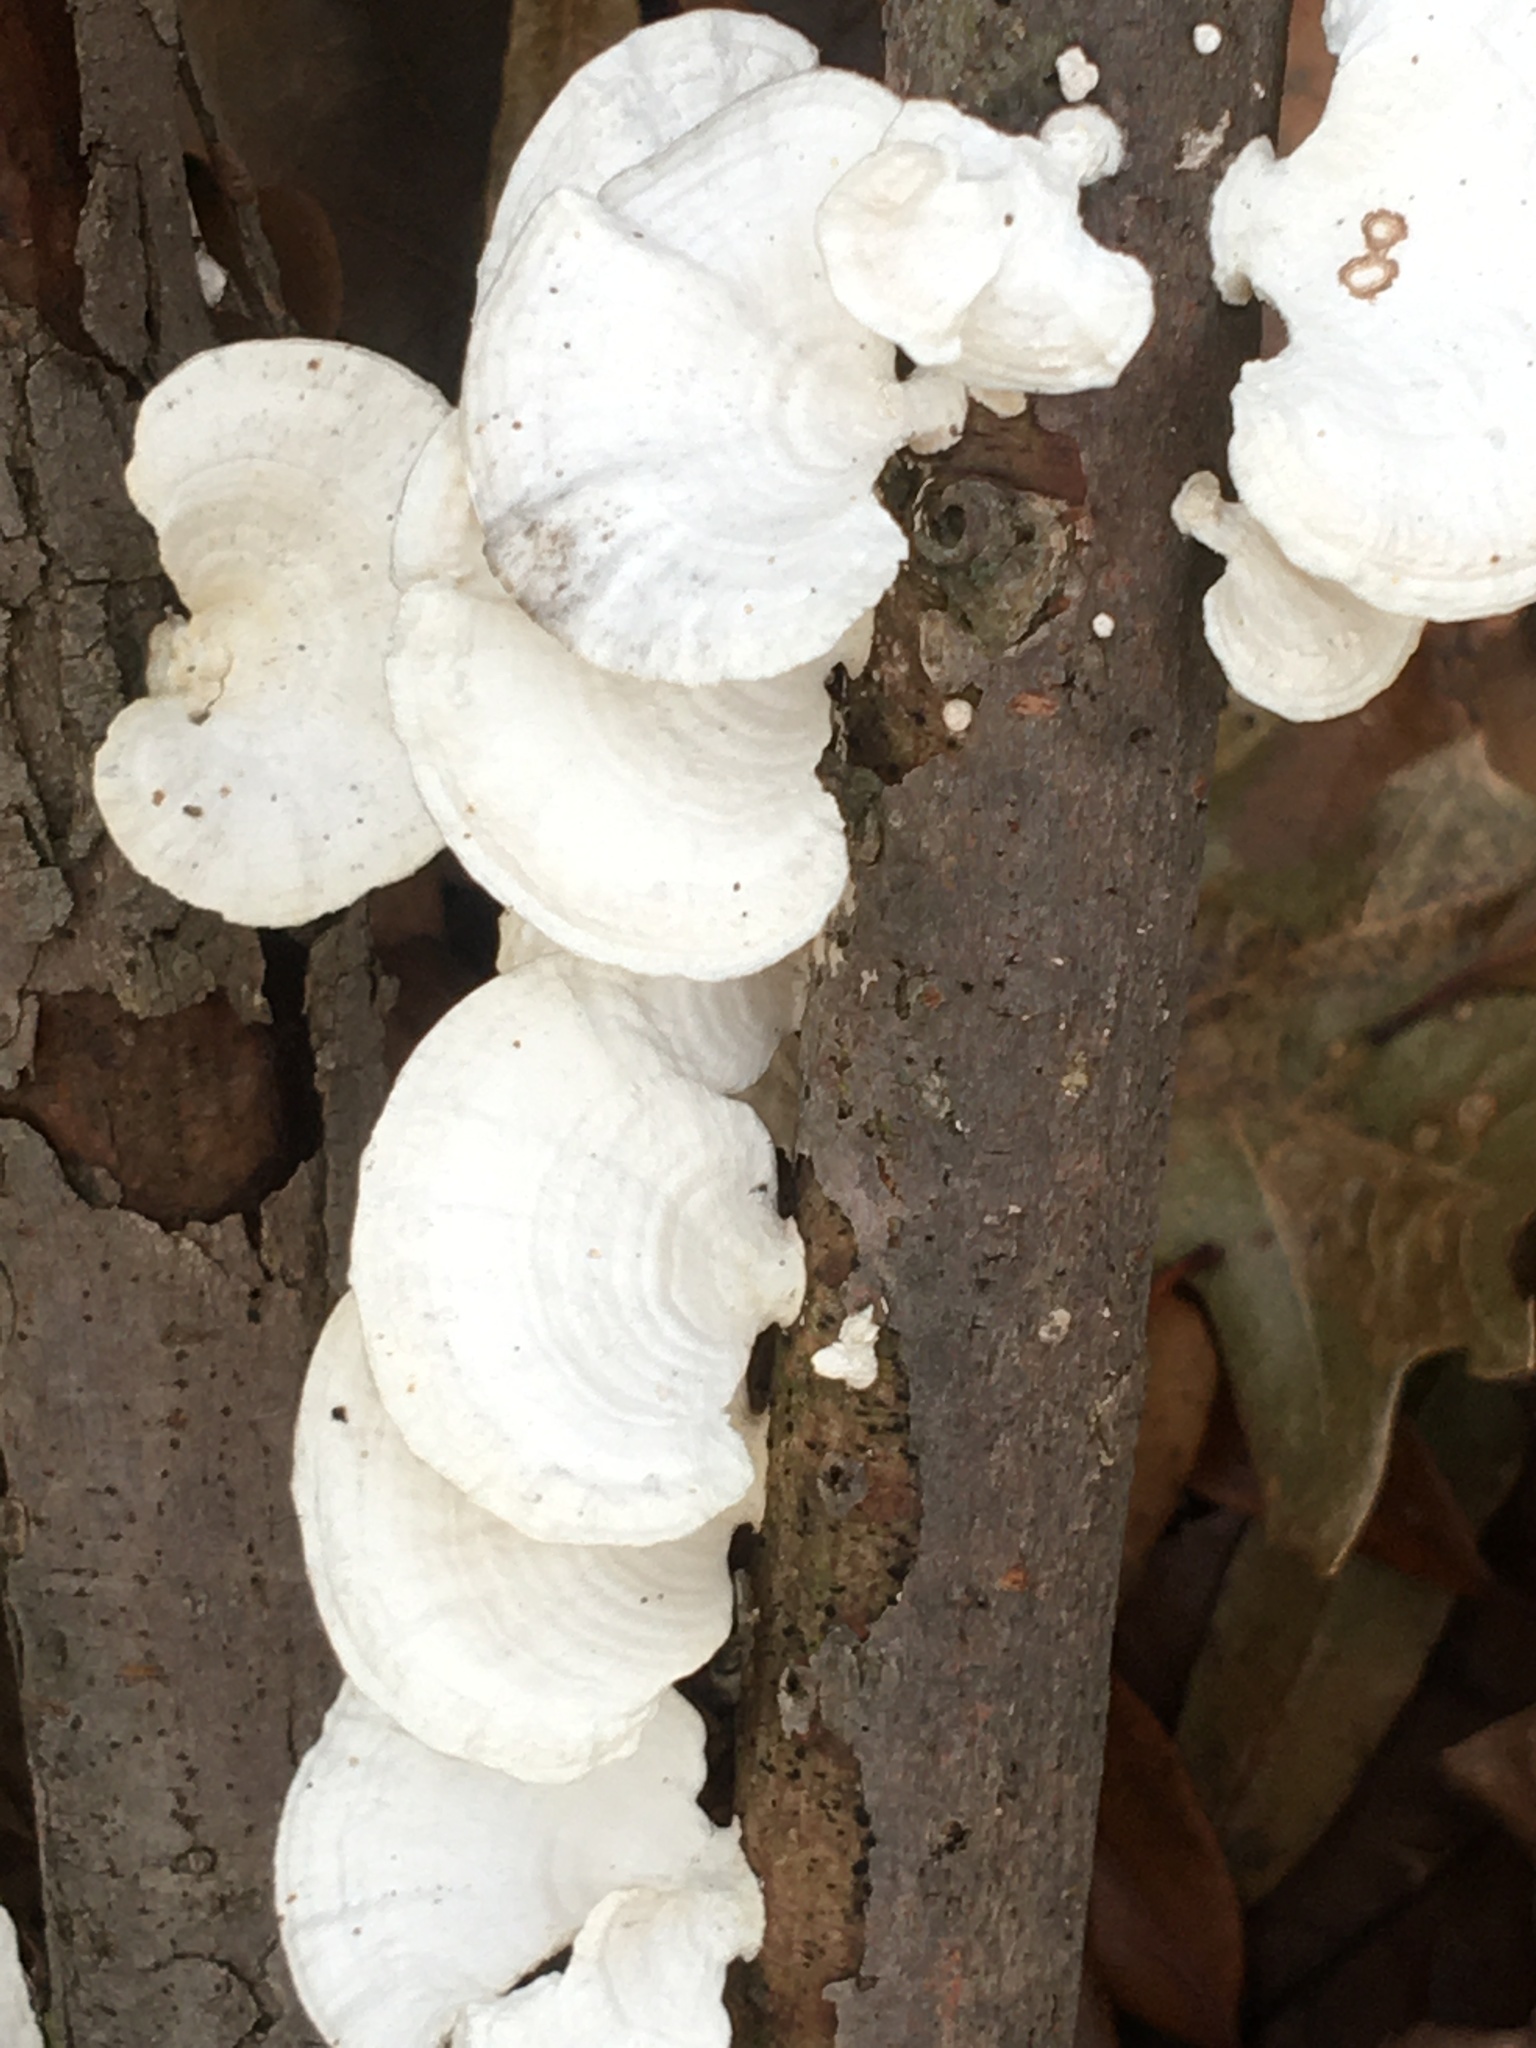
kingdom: Fungi
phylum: Basidiomycota
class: Agaricomycetes
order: Polyporales
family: Polyporaceae
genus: Poronidulus
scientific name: Poronidulus conchifer
